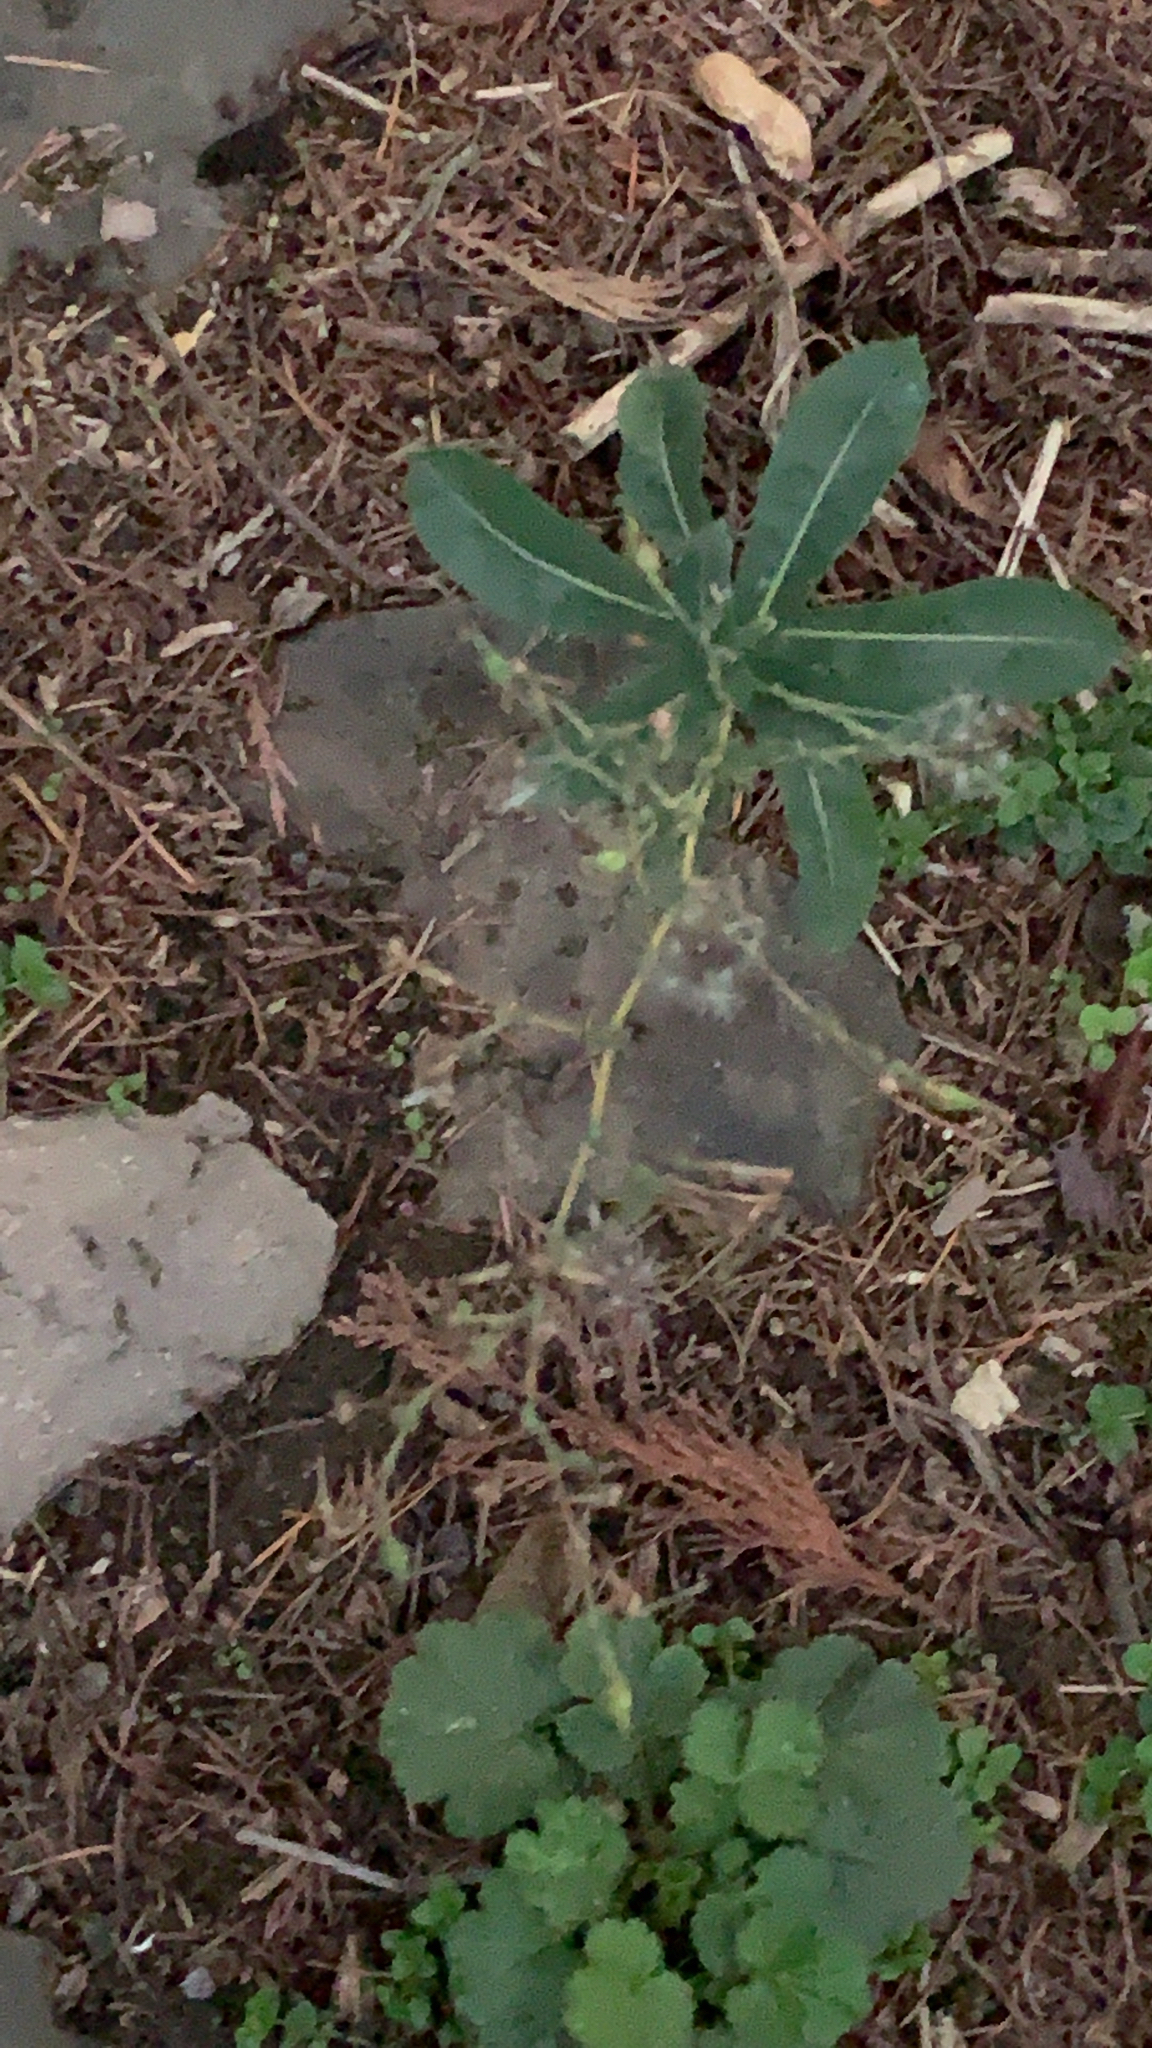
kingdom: Plantae
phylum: Tracheophyta
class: Magnoliopsida
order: Asterales
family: Asteraceae
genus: Lactuca
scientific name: Lactuca serriola
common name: Prickly lettuce
